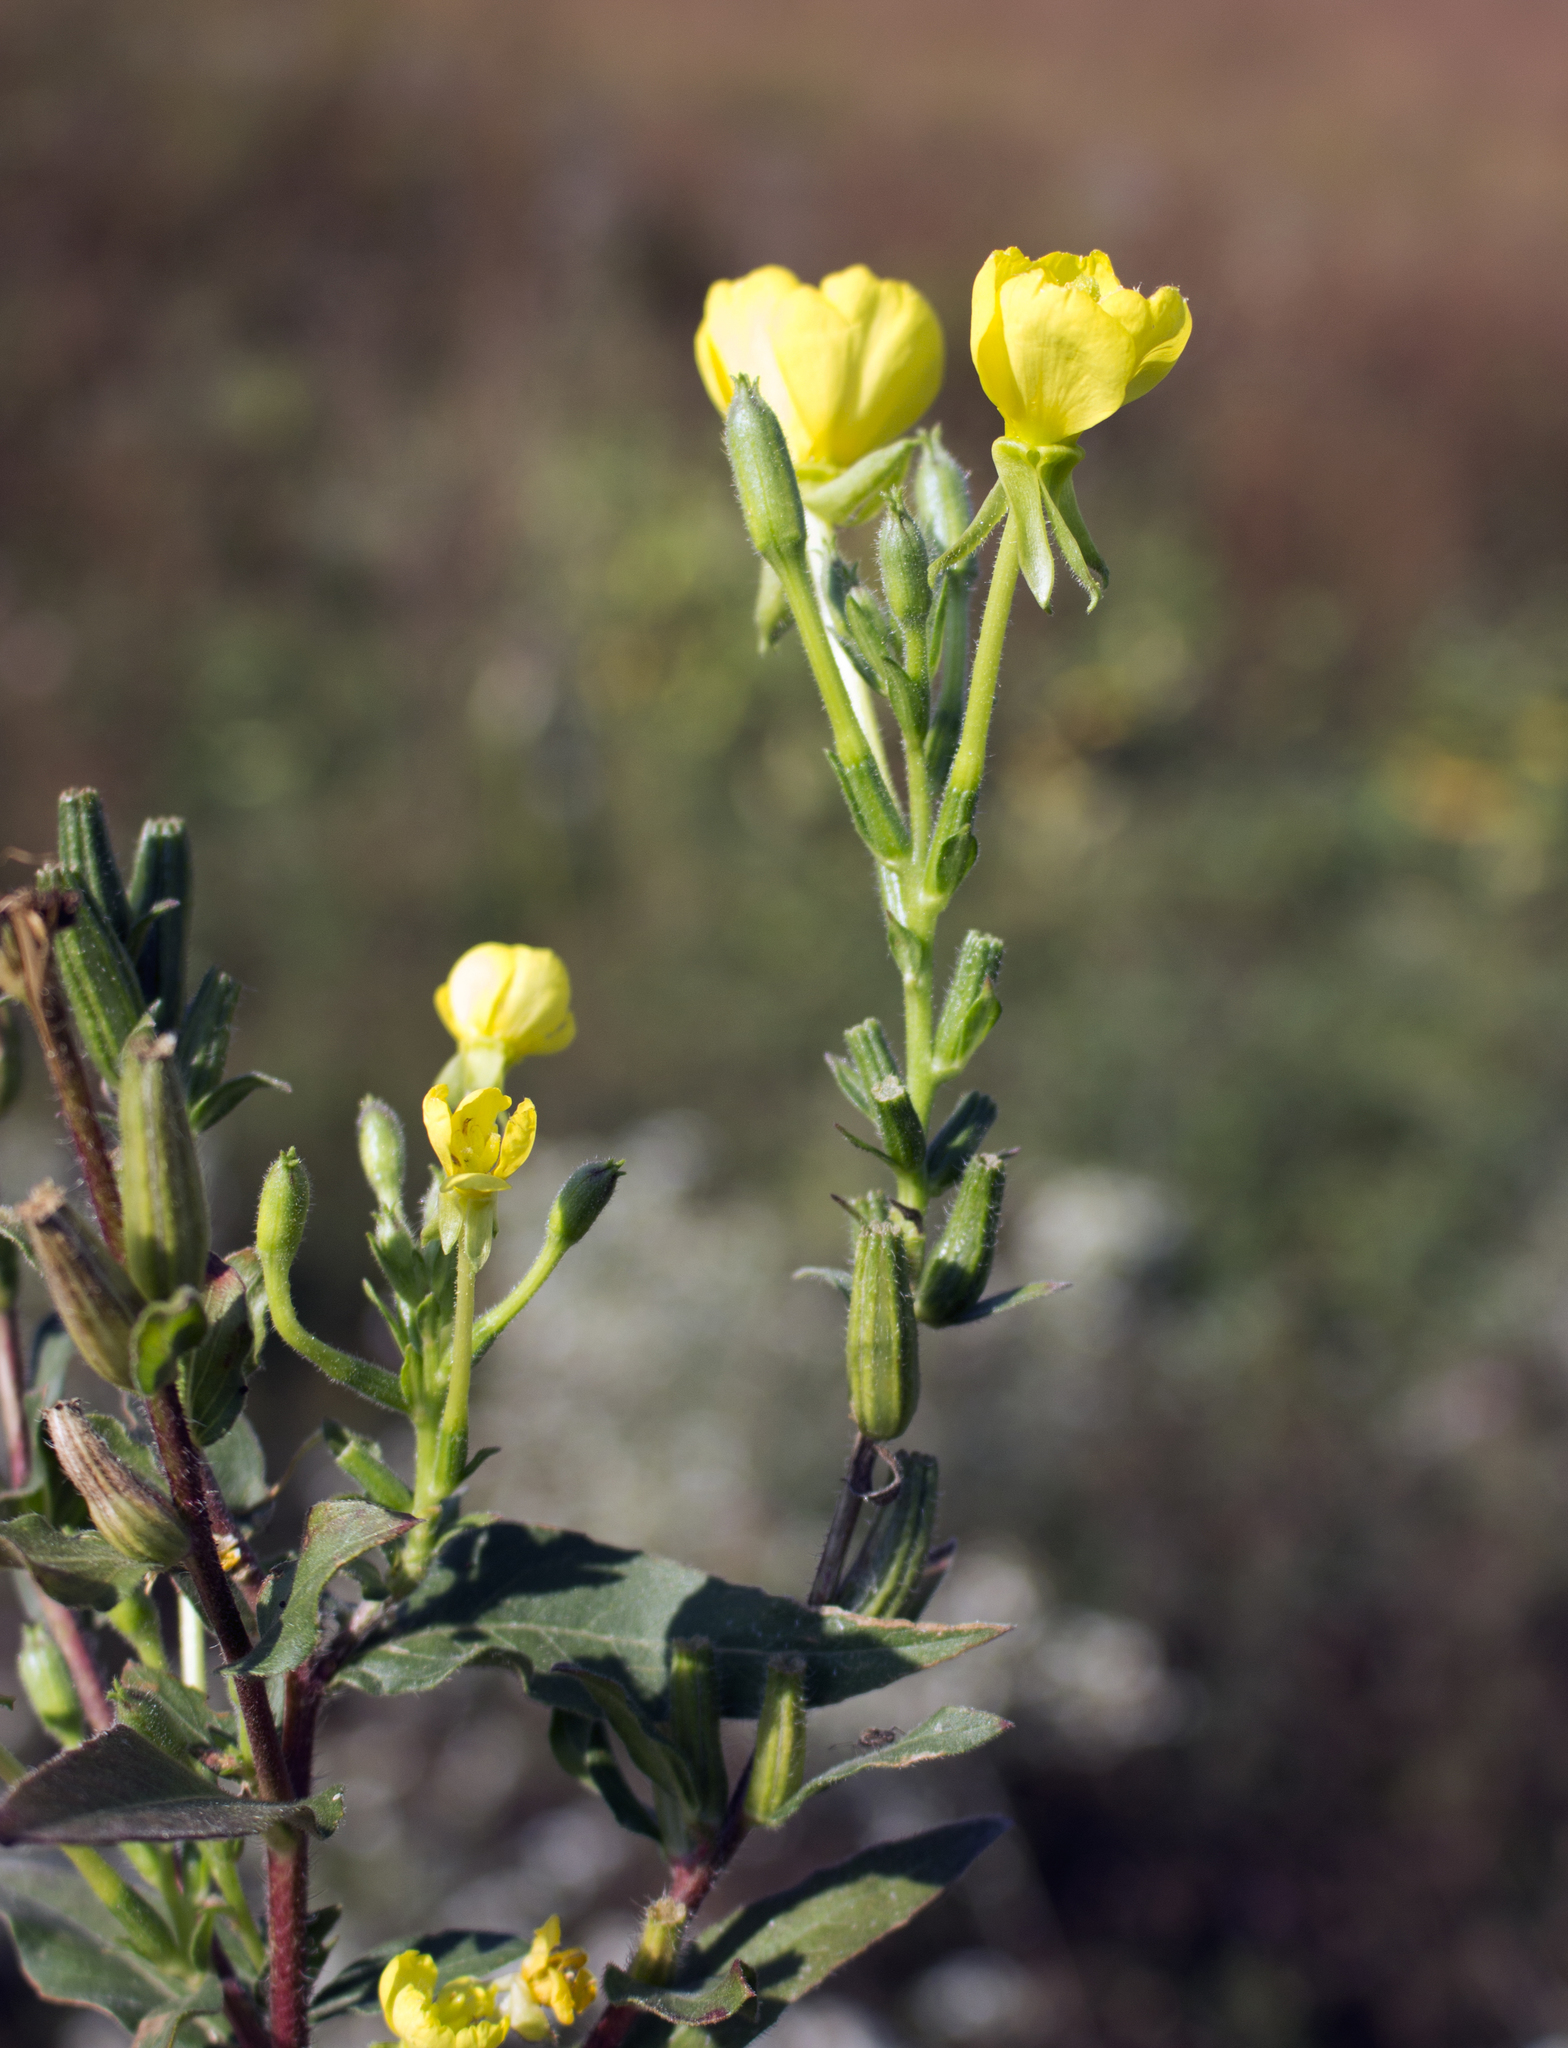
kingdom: Plantae
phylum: Tracheophyta
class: Magnoliopsida
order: Myrtales
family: Onagraceae
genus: Oenothera
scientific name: Oenothera biennis
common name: Common evening-primrose
